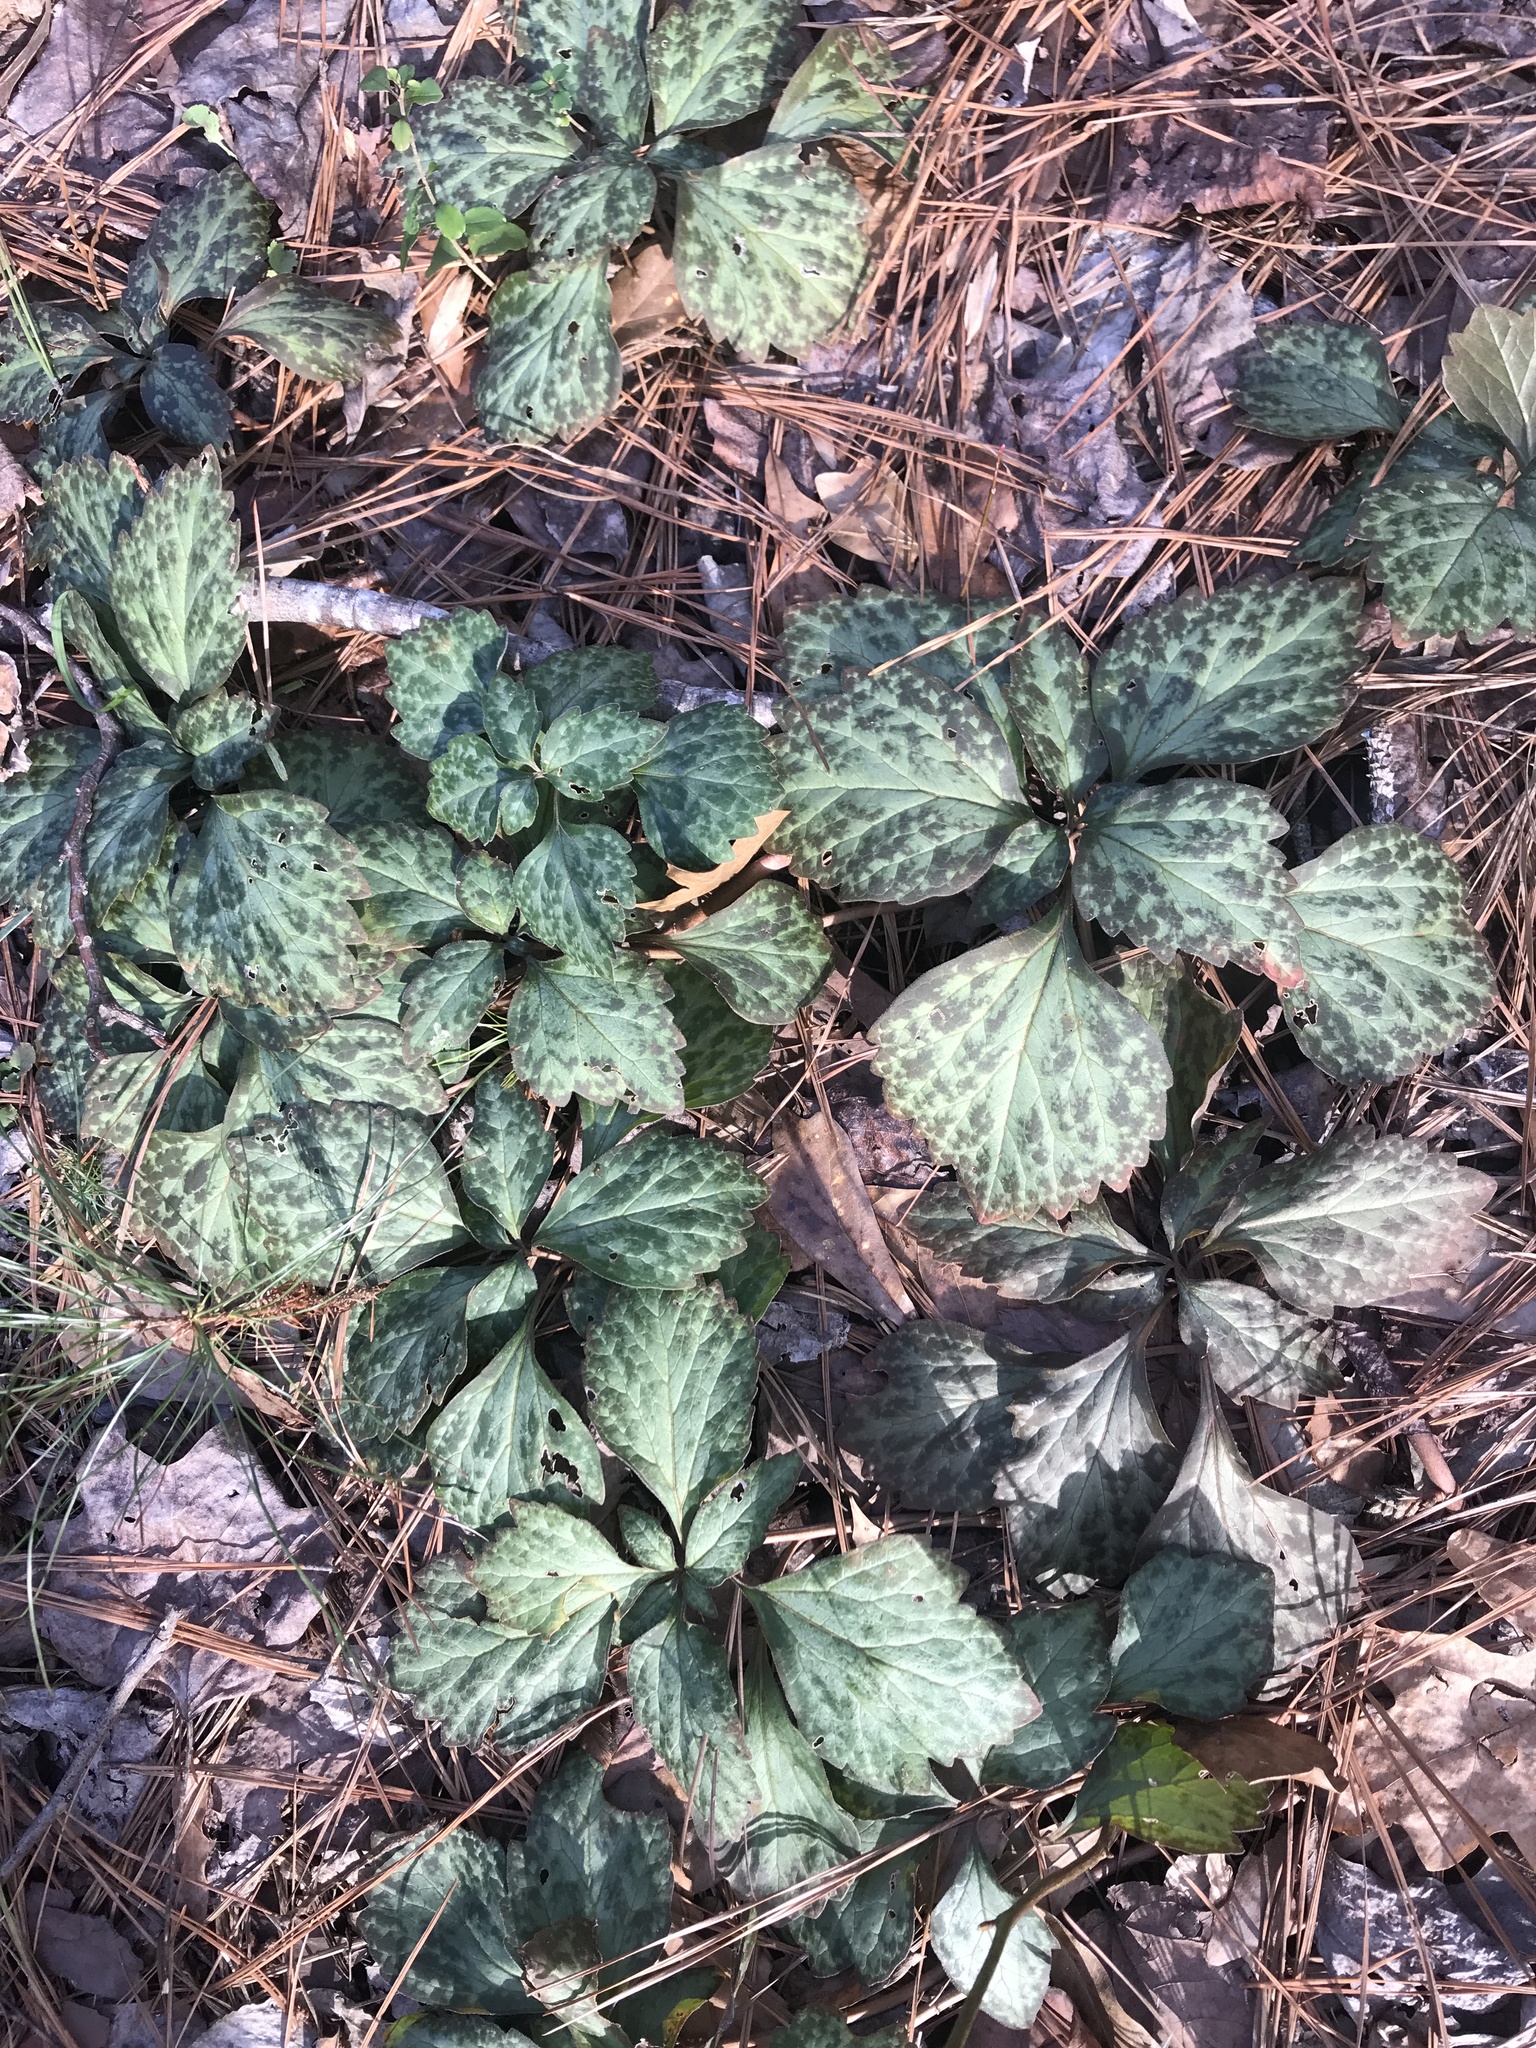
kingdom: Plantae
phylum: Tracheophyta
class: Magnoliopsida
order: Buxales
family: Buxaceae
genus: Pachysandra
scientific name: Pachysandra procumbens
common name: Mountain-spurge
